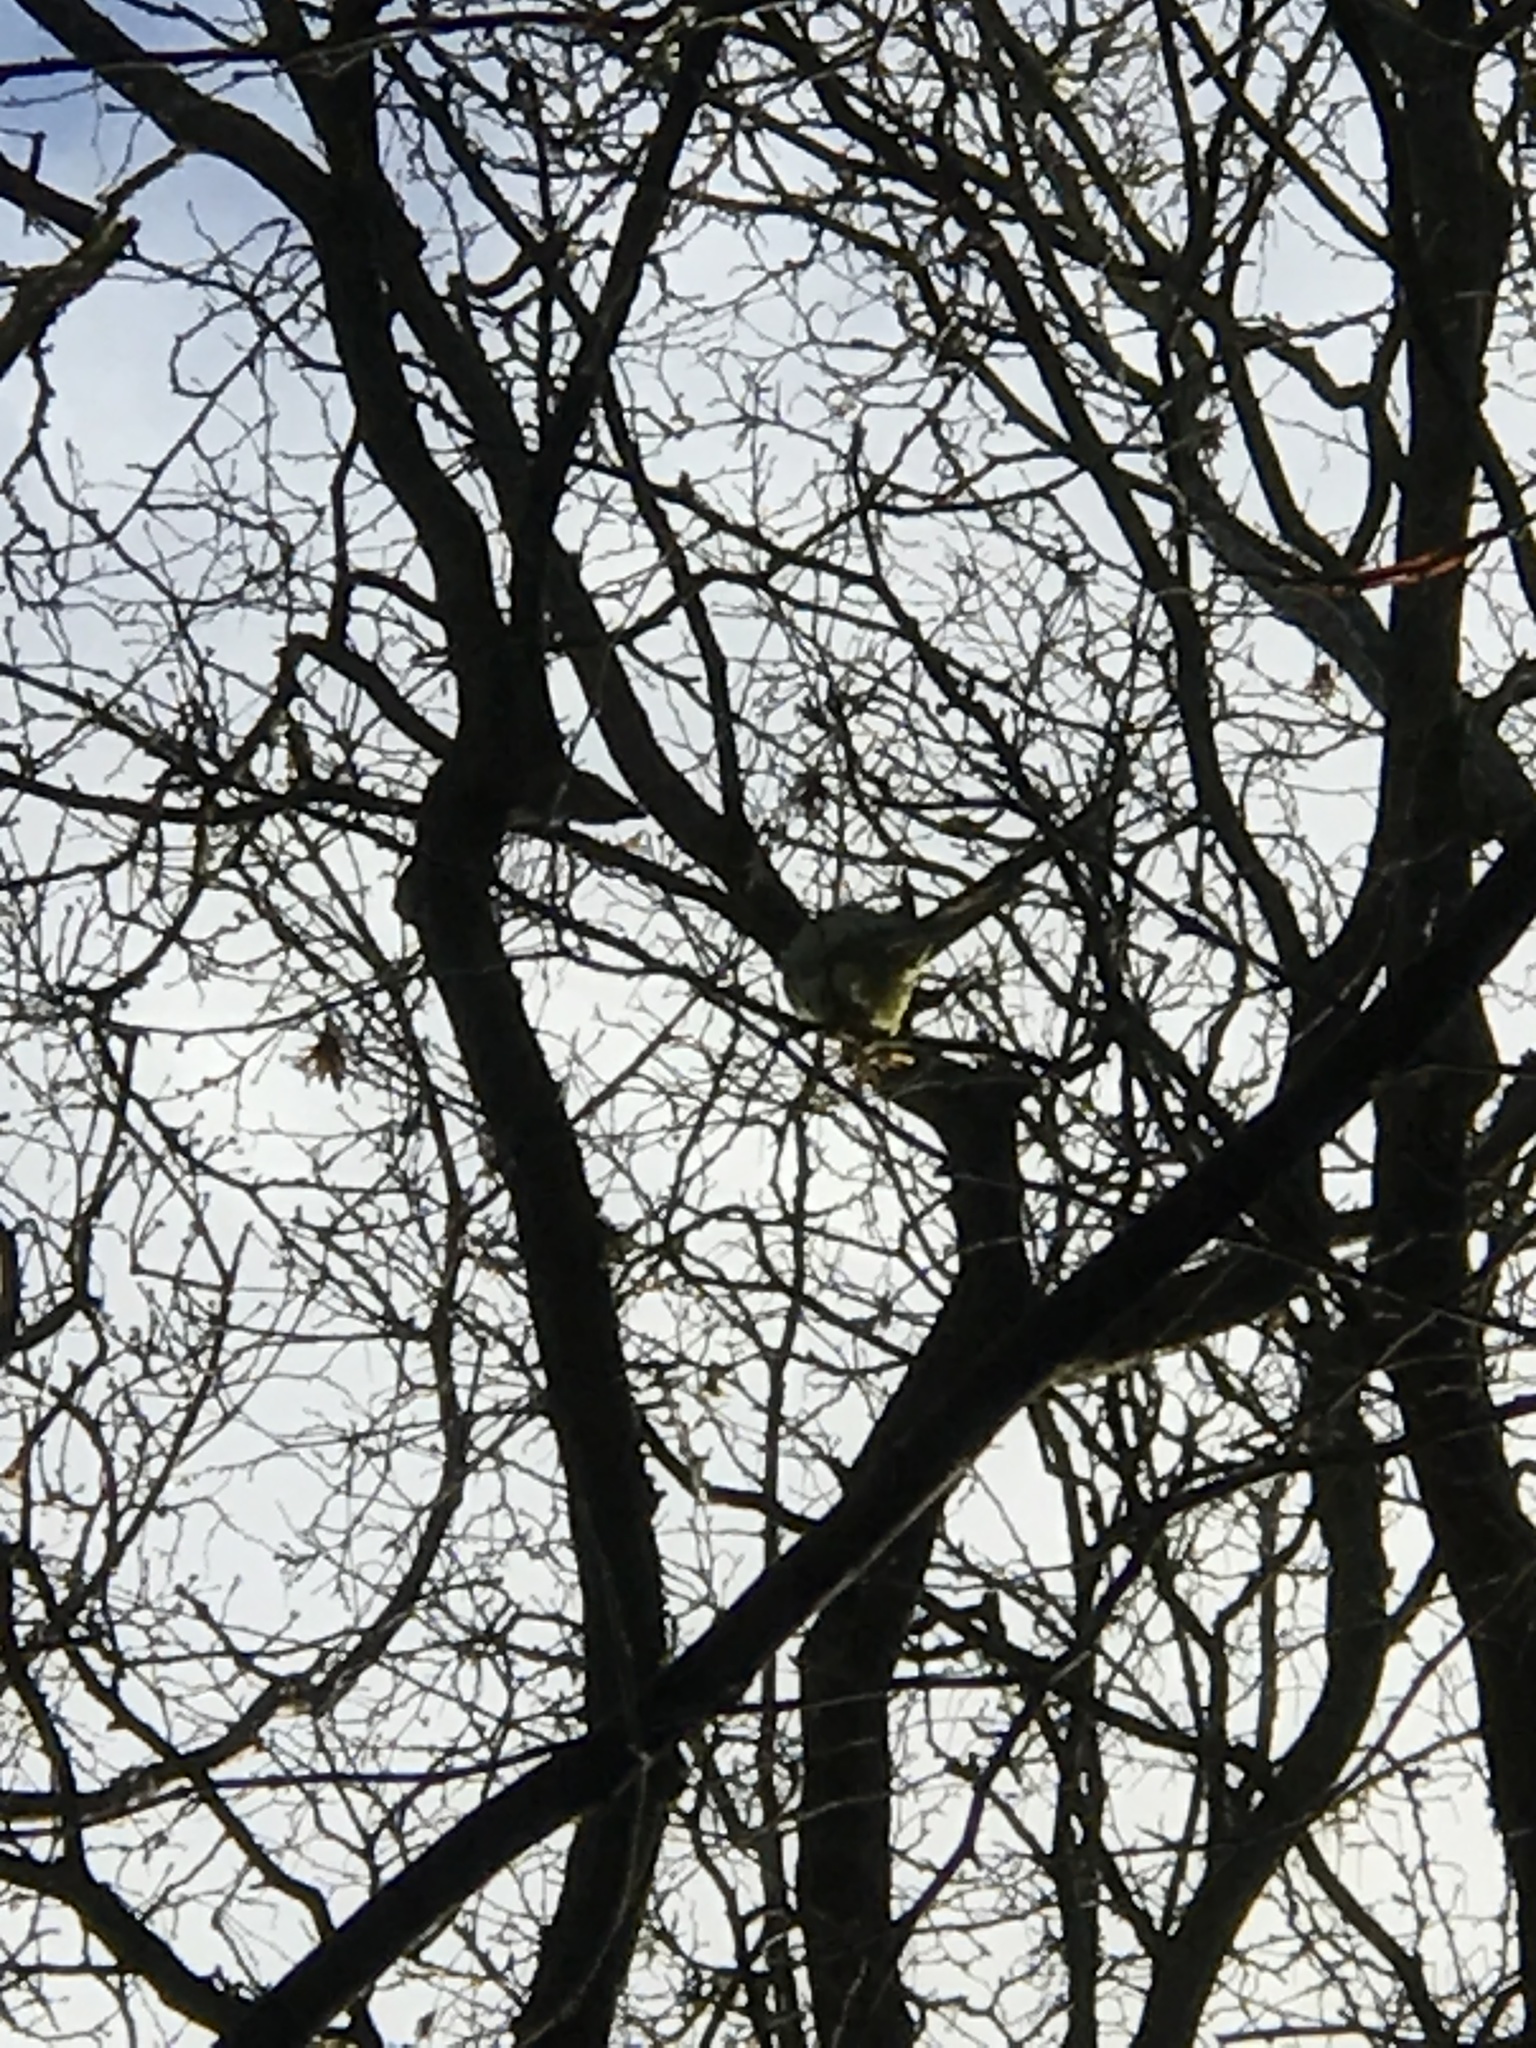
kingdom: Animalia
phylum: Chordata
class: Aves
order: Psittaciformes
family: Psittacidae
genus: Psittacula
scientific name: Psittacula krameri
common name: Rose-ringed parakeet
